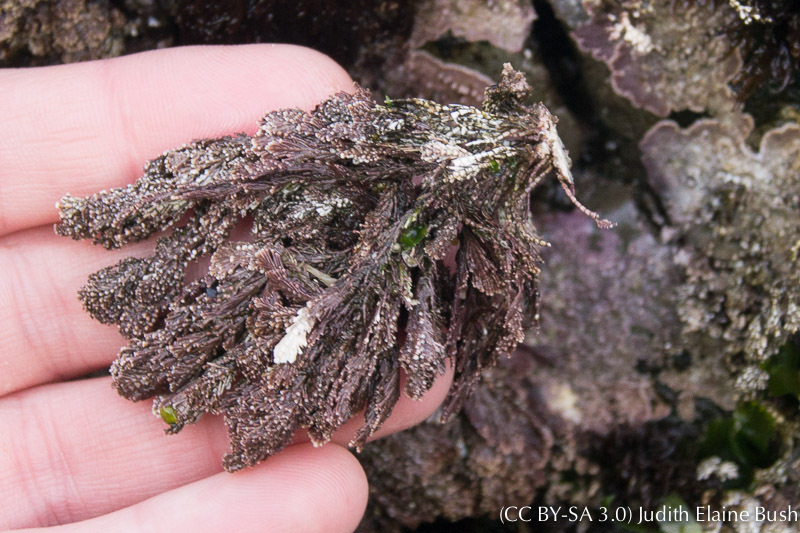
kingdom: Plantae
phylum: Rhodophyta
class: Florideophyceae
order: Corallinales
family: Corallinaceae
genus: Corallina
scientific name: Corallina vancouveriensis
